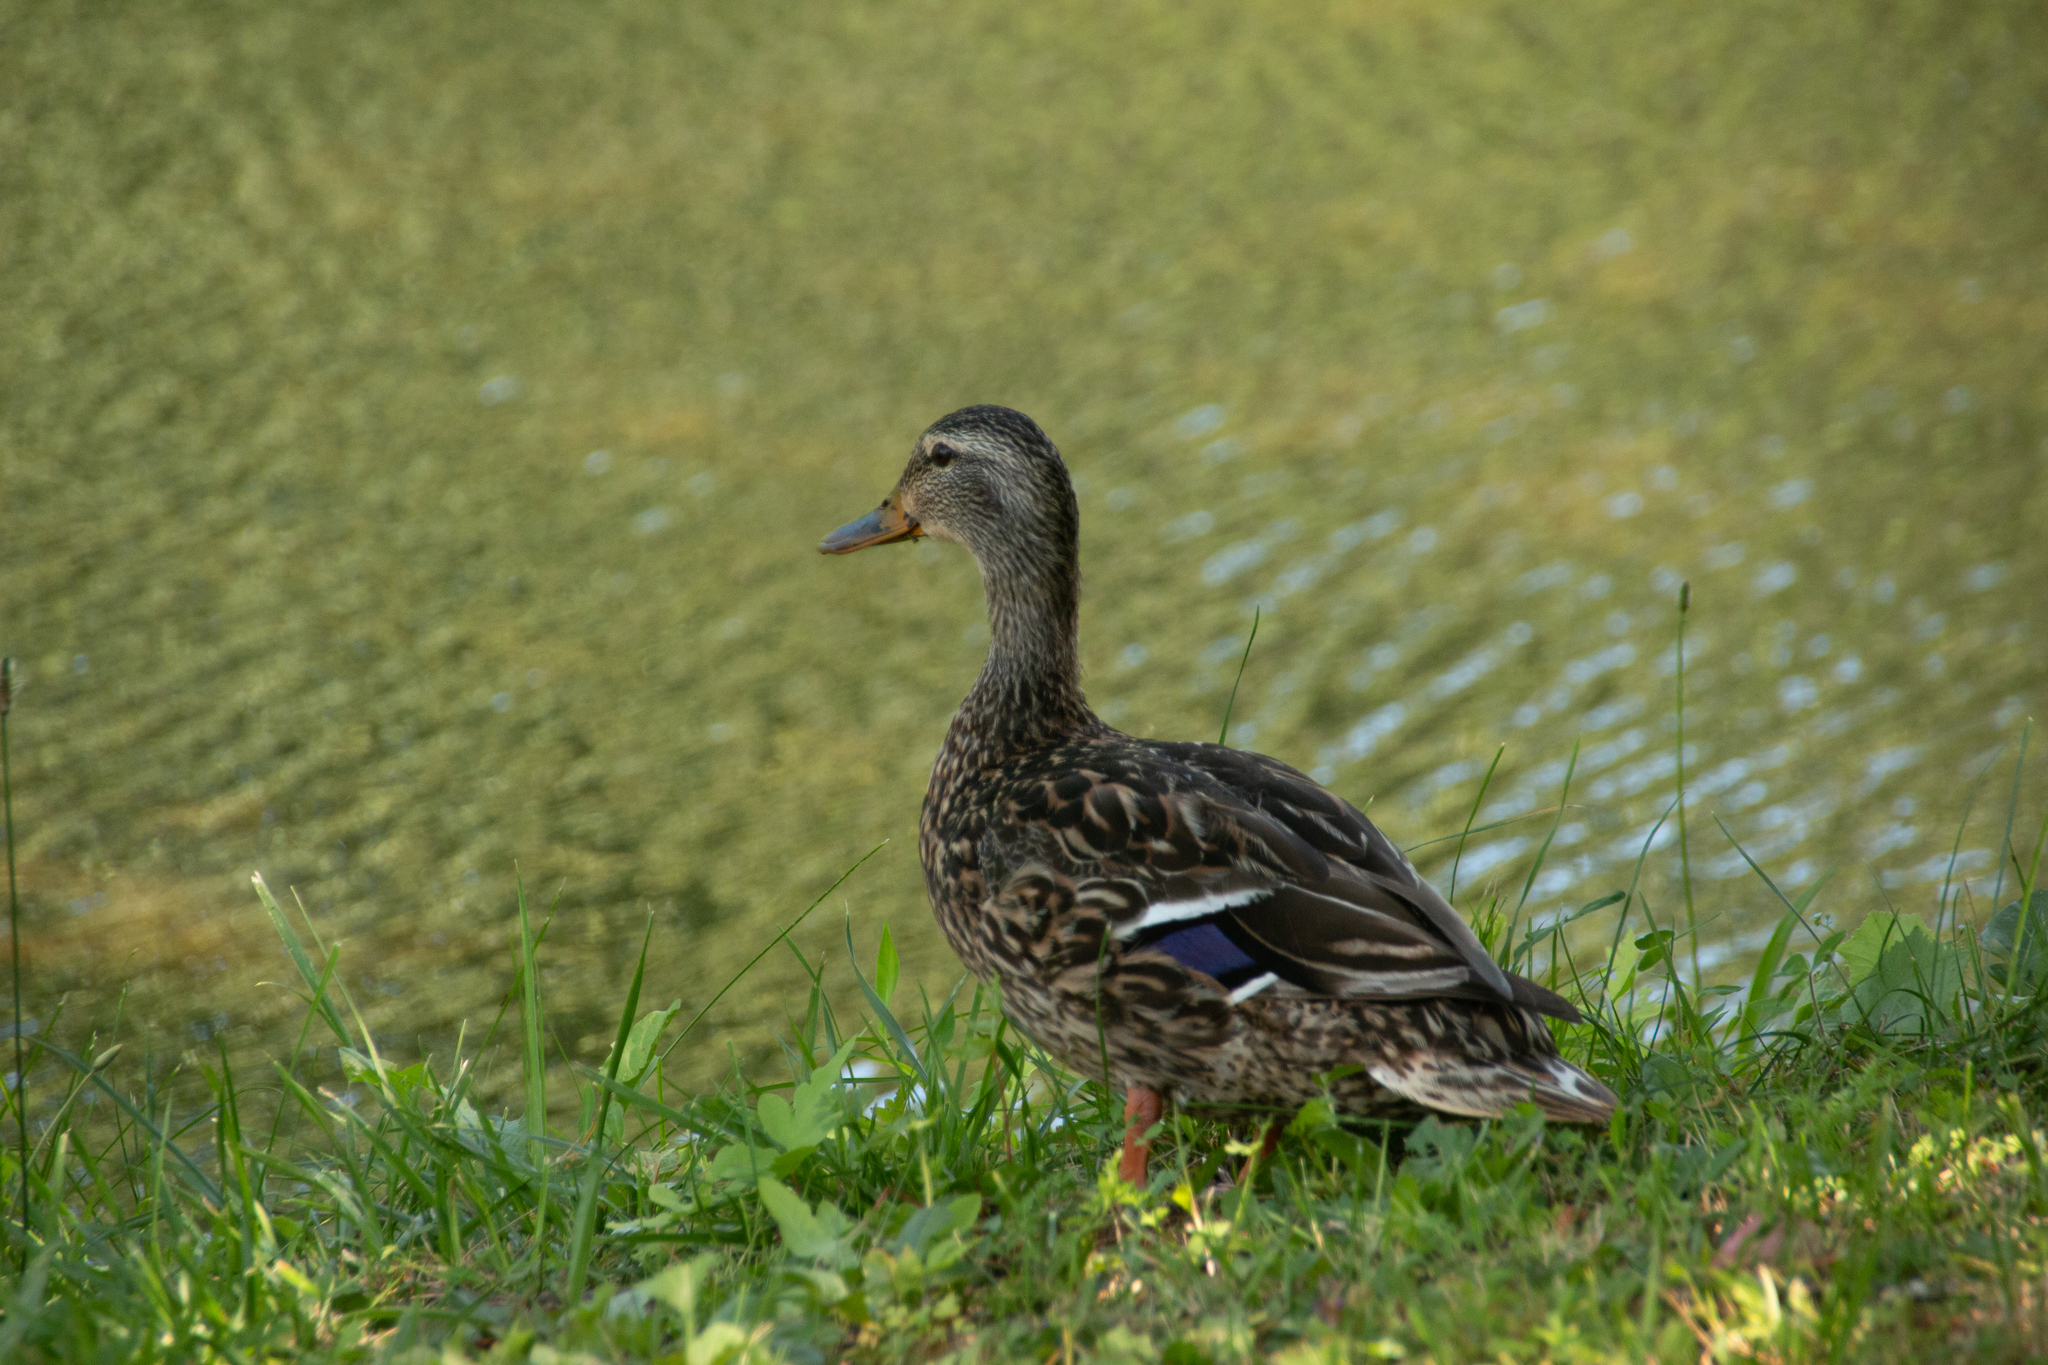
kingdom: Animalia
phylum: Chordata
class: Aves
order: Anseriformes
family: Anatidae
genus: Anas
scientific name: Anas platyrhynchos
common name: Mallard
